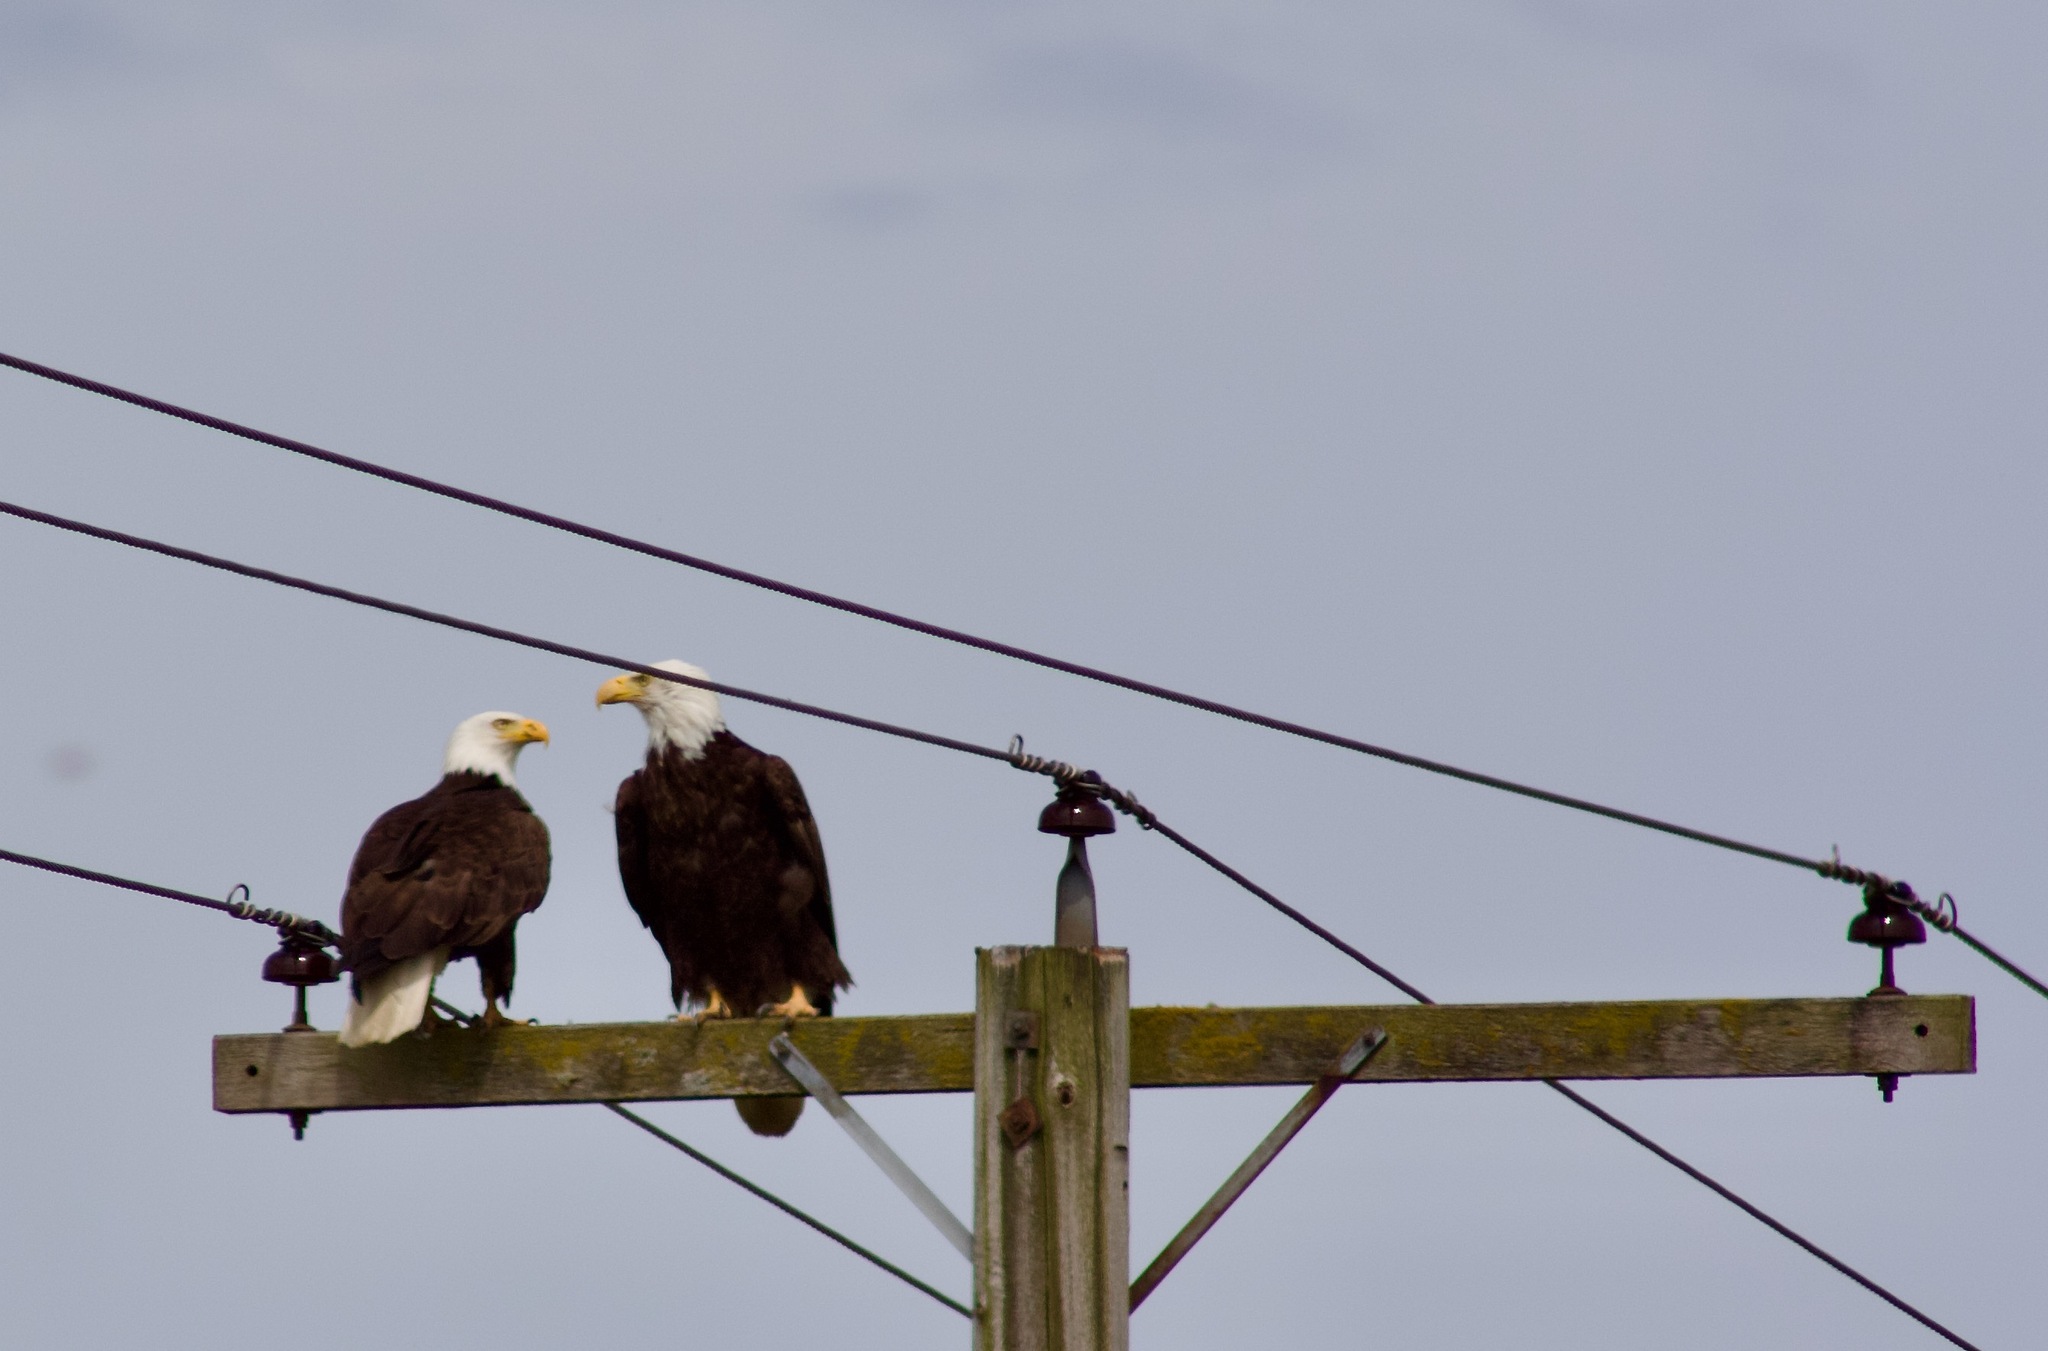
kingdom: Animalia
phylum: Chordata
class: Aves
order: Accipitriformes
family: Accipitridae
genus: Haliaeetus
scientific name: Haliaeetus leucocephalus
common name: Bald eagle
